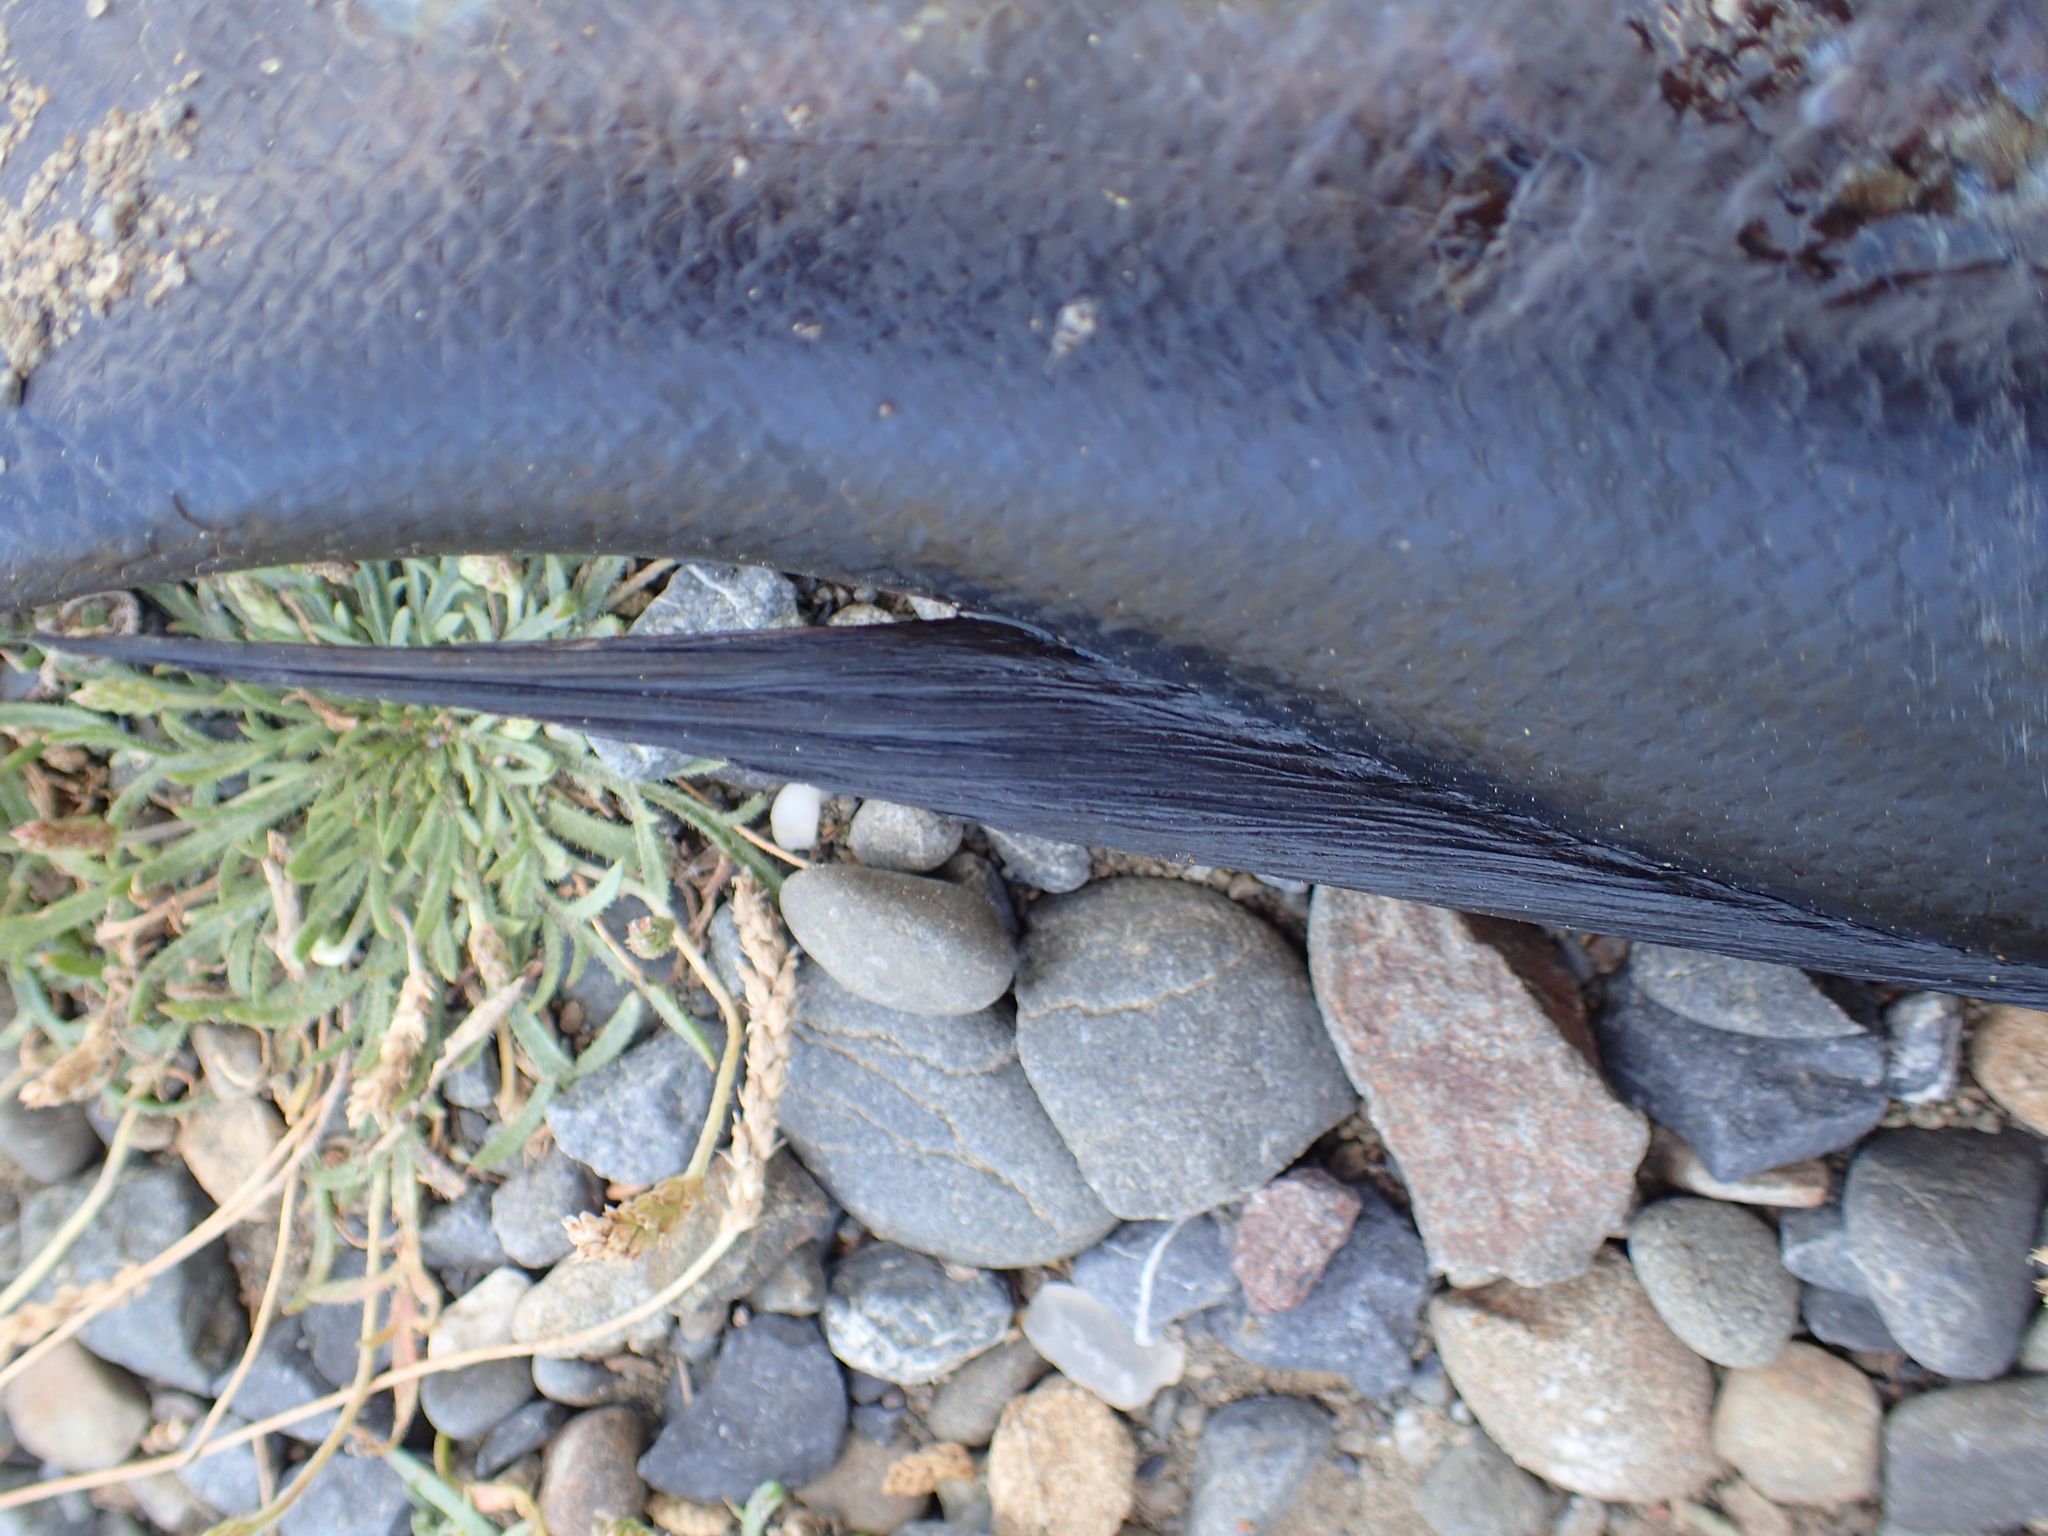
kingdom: Animalia
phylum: Chordata
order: Perciformes
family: Odacidae
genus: Odax
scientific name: Odax pullus
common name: Butterfish
